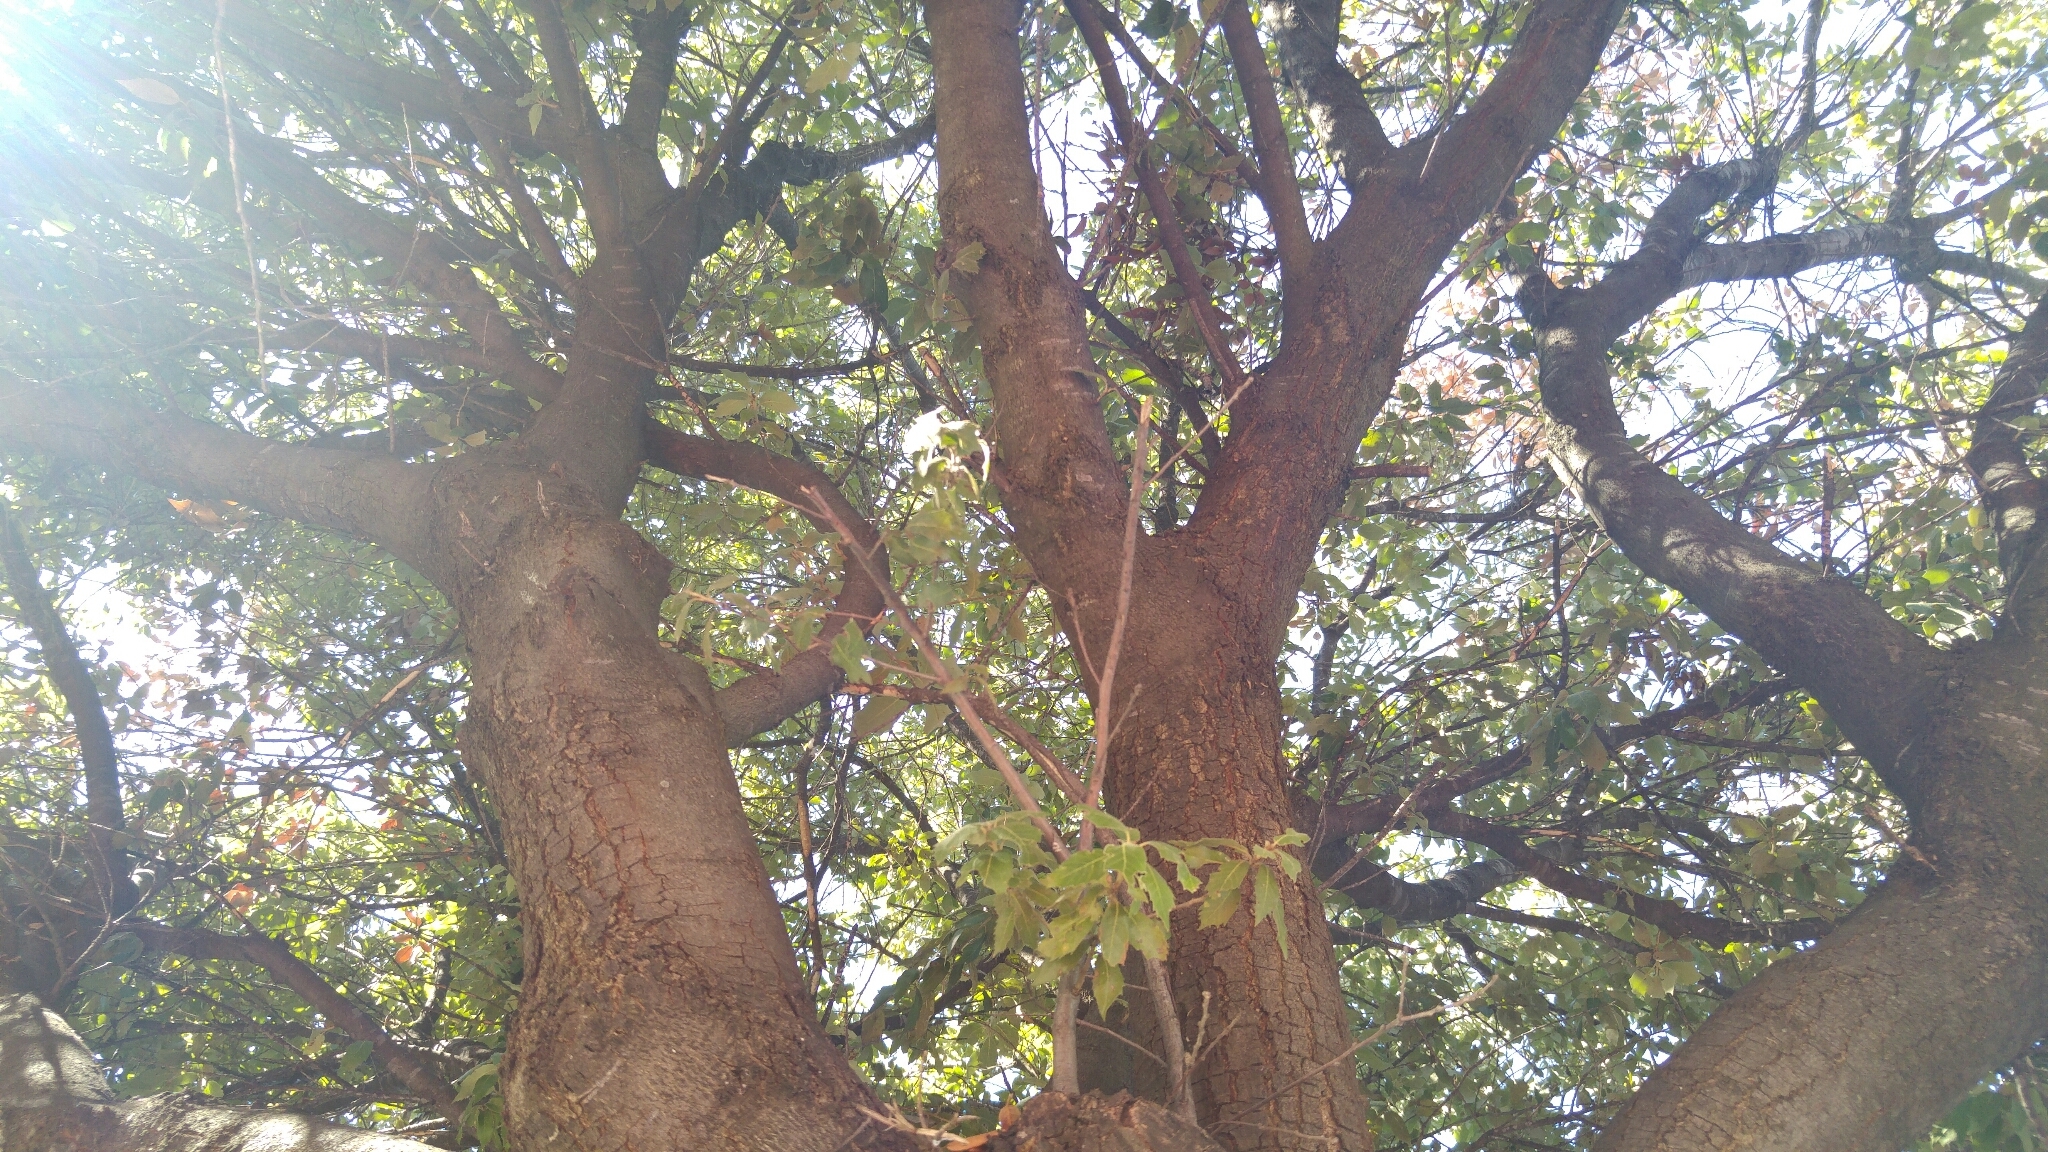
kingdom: Plantae
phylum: Tracheophyta
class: Magnoliopsida
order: Fagales
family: Fagaceae
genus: Quercus
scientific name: Quercus ilex
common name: Evergreen oak
